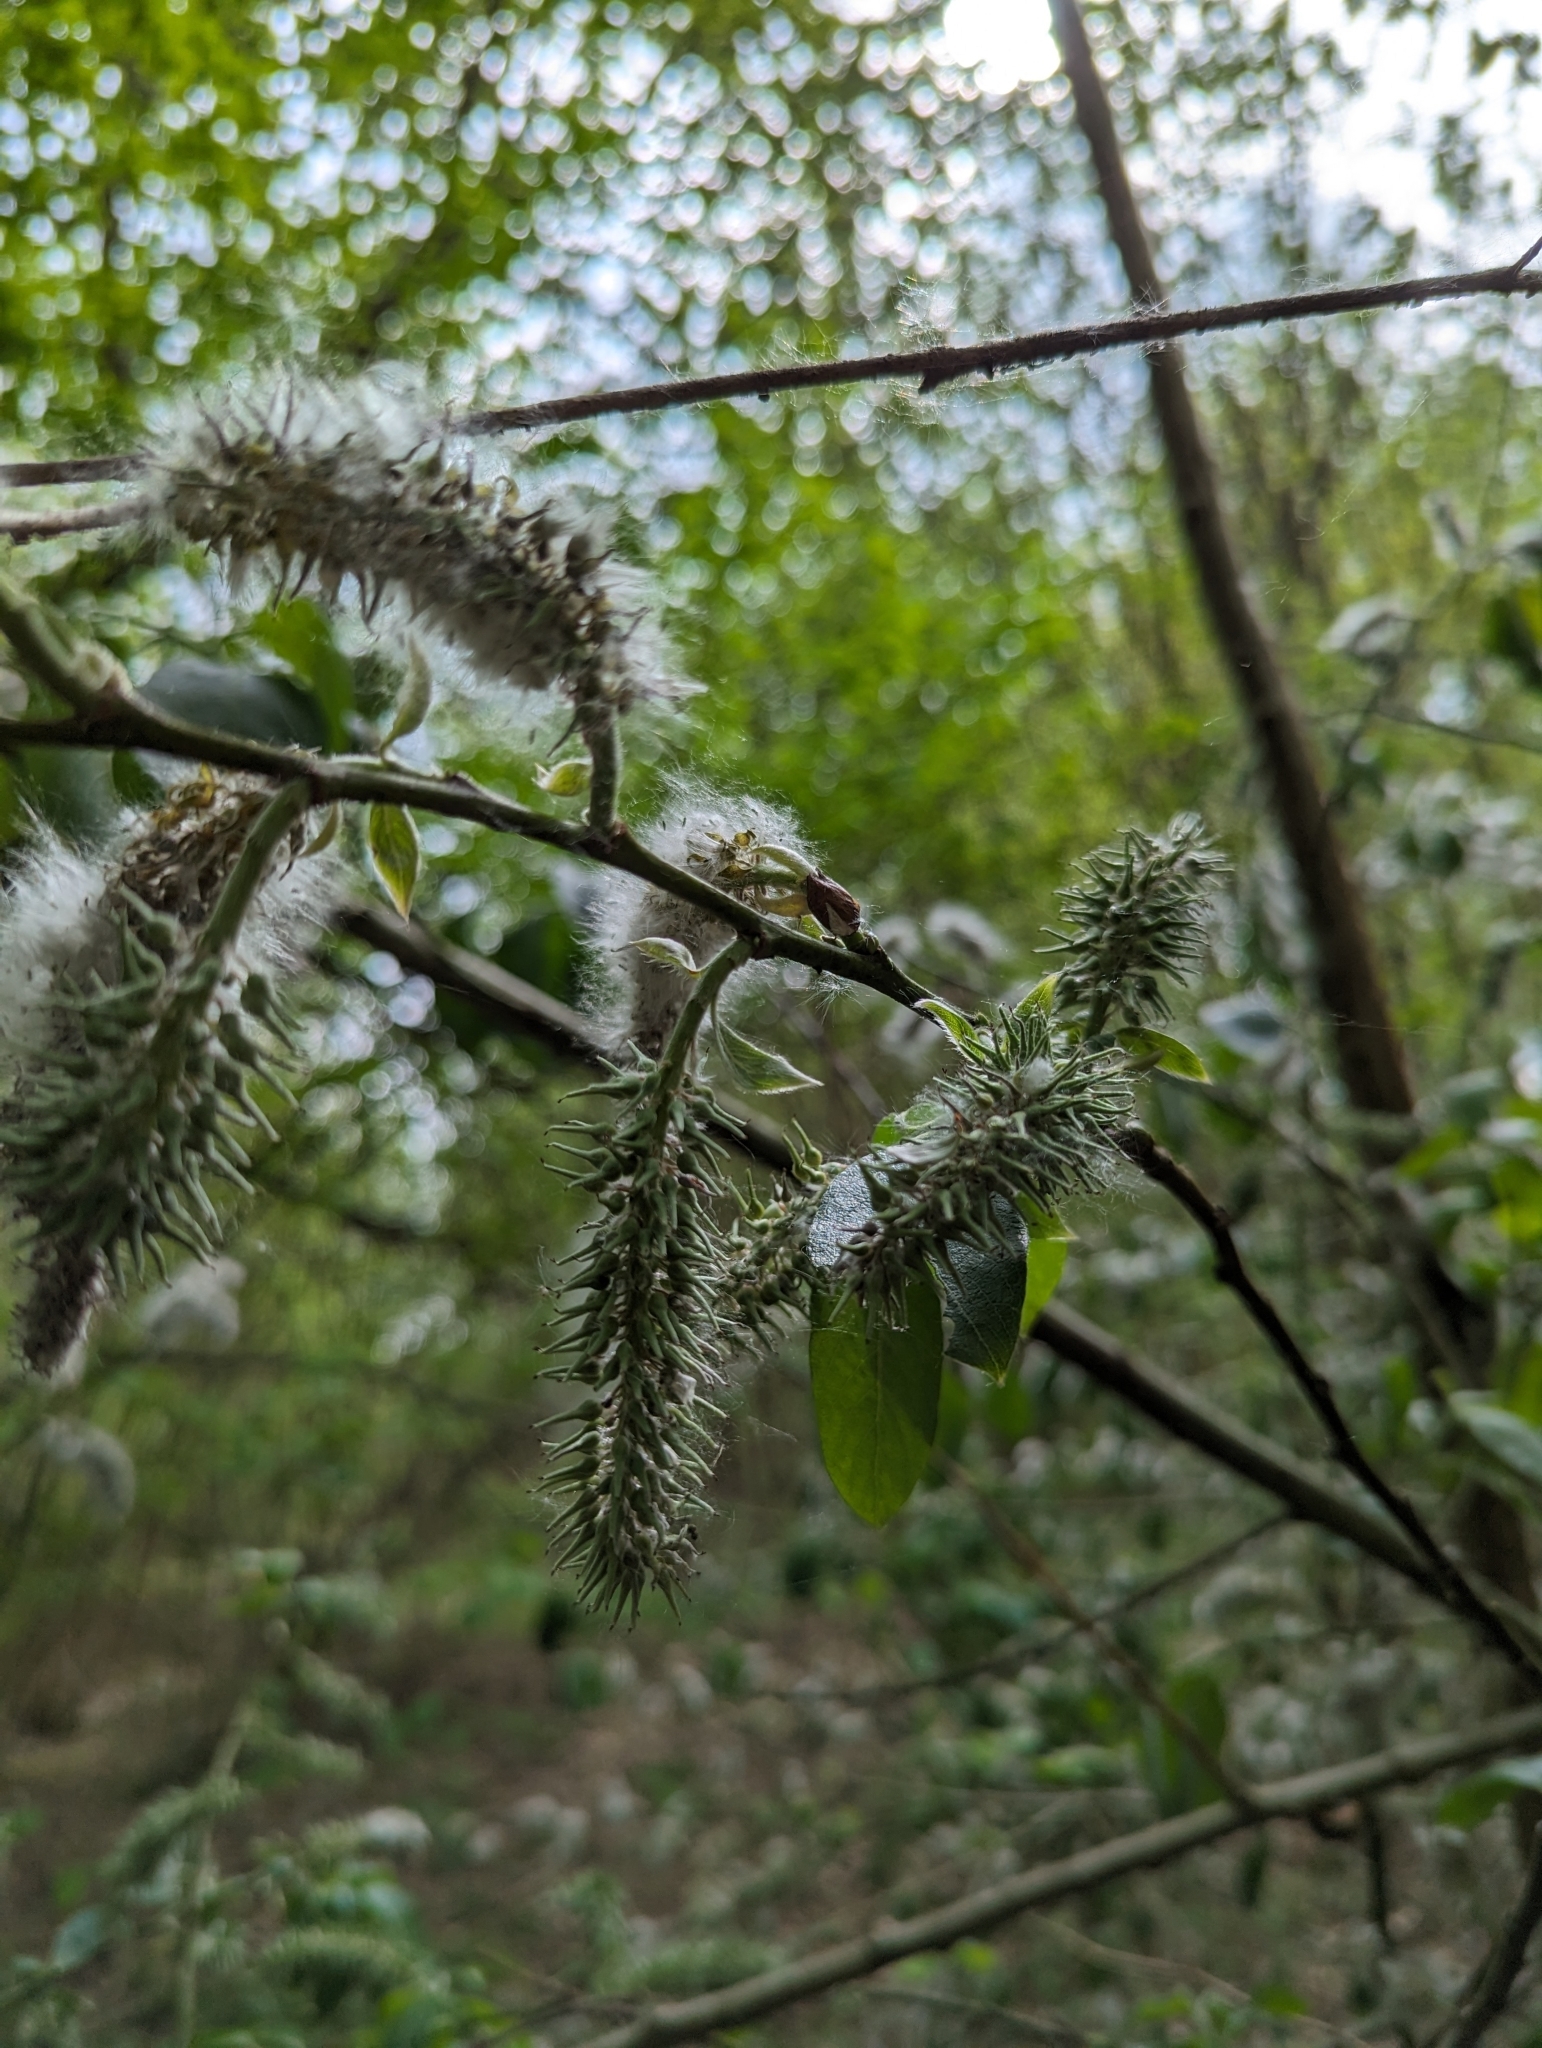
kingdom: Plantae
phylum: Tracheophyta
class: Magnoliopsida
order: Malpighiales
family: Salicaceae
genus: Salix
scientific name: Salix caprea
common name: Goat willow
